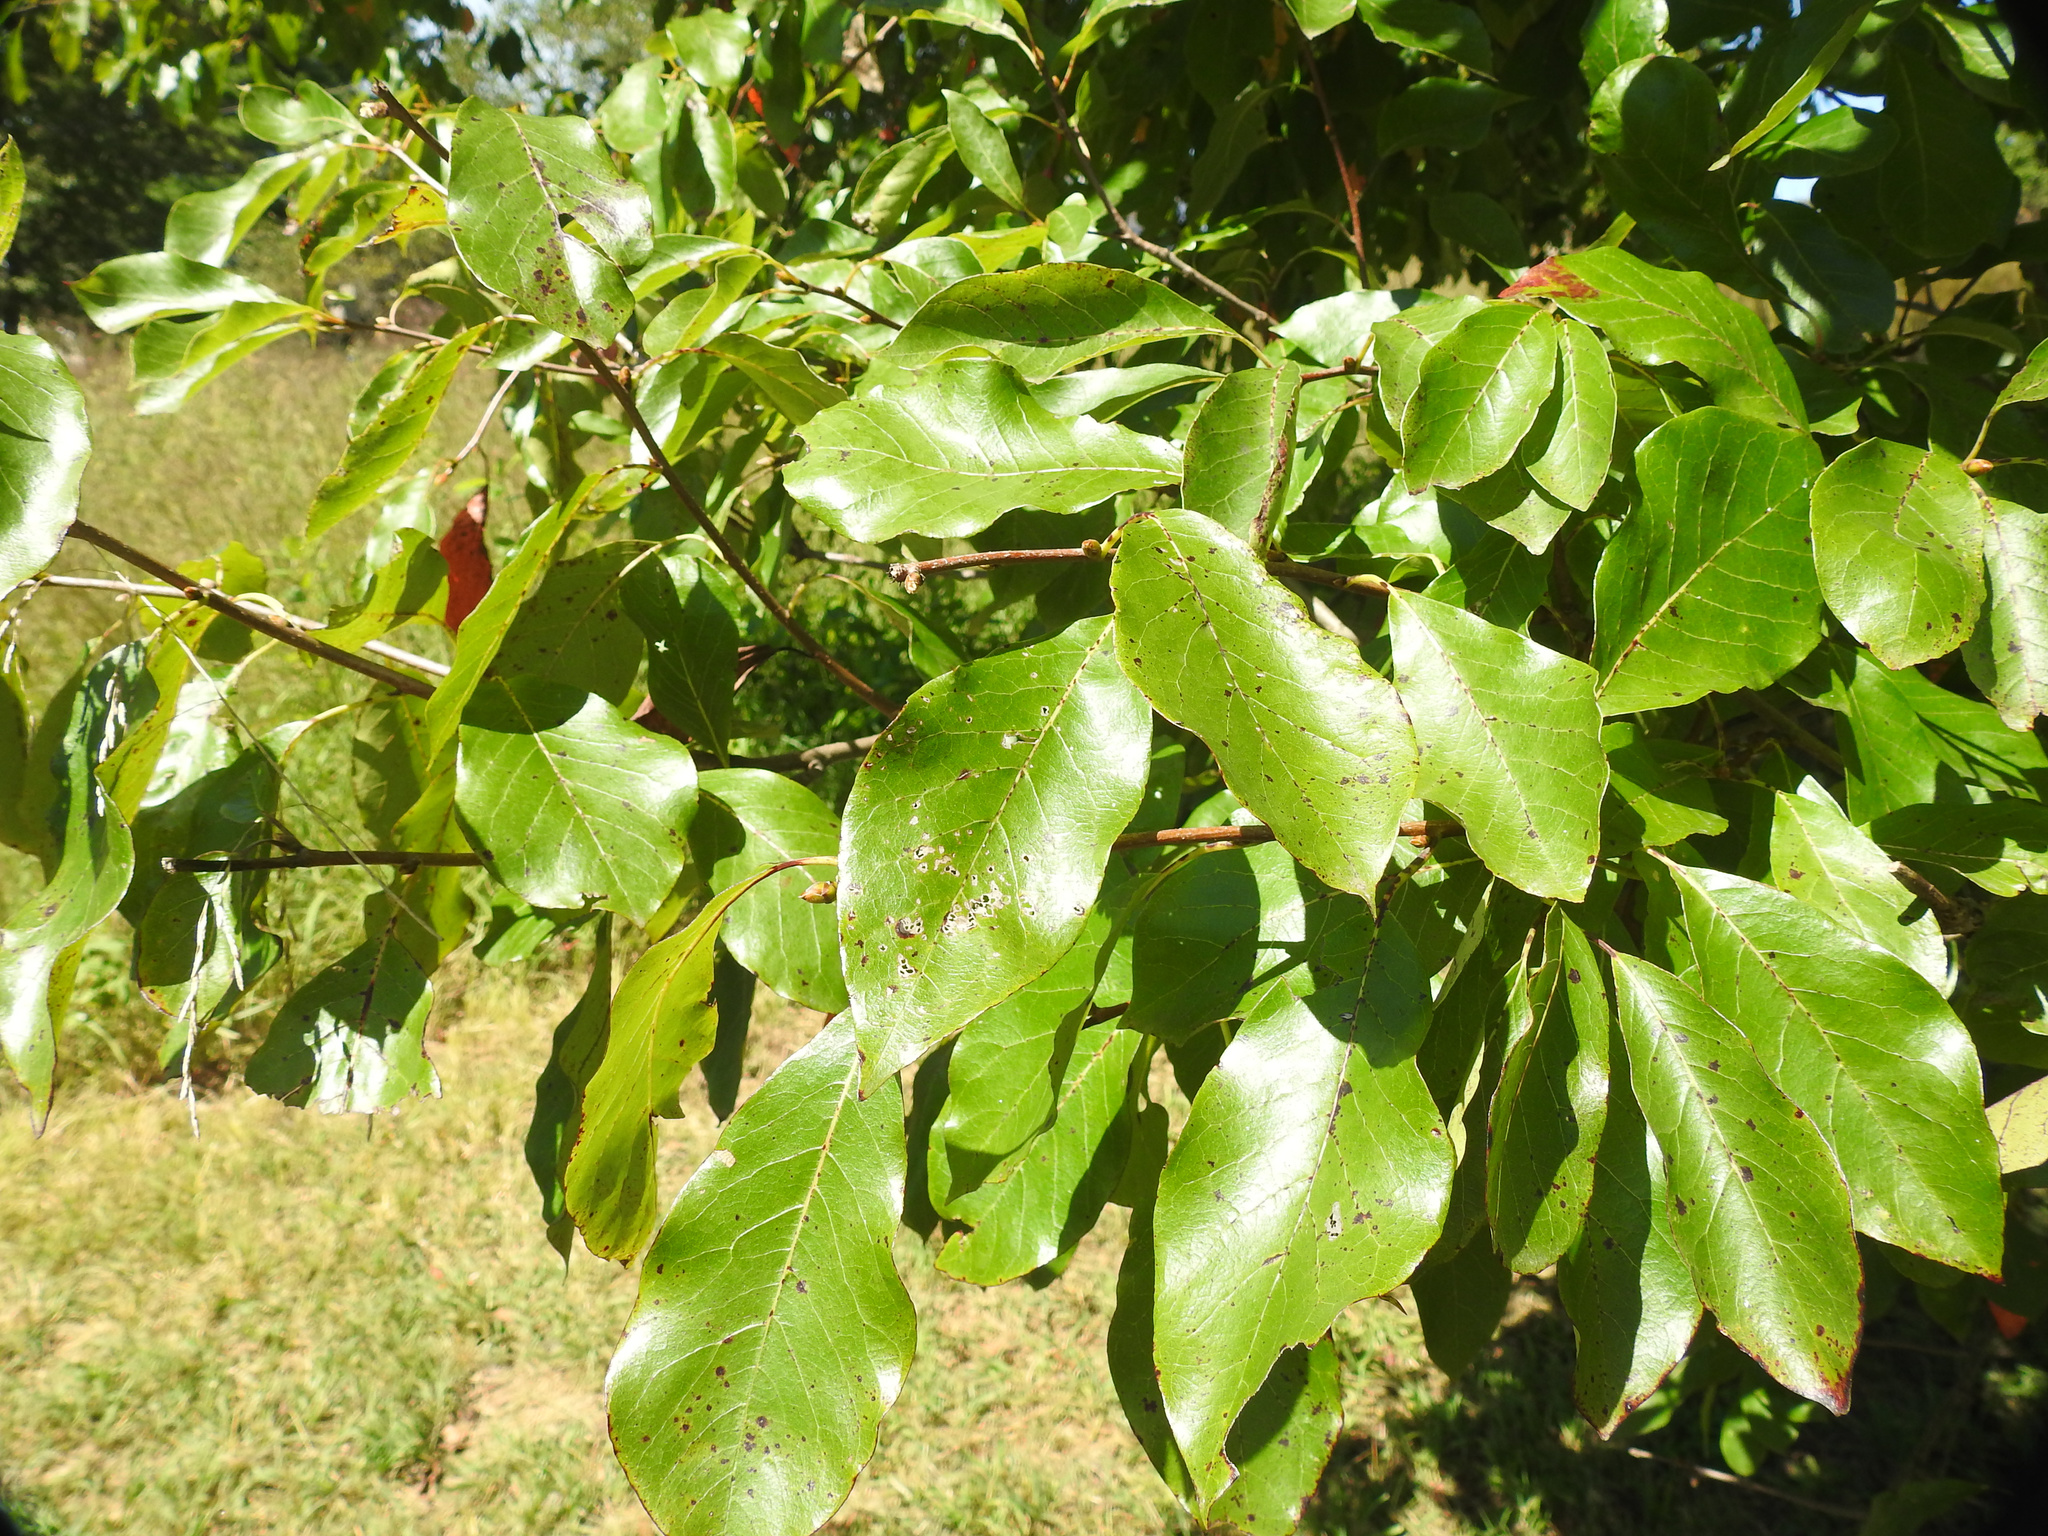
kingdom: Plantae
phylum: Tracheophyta
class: Magnoliopsida
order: Cornales
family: Nyssaceae
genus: Nyssa
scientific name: Nyssa sylvatica
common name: Black tupelo
